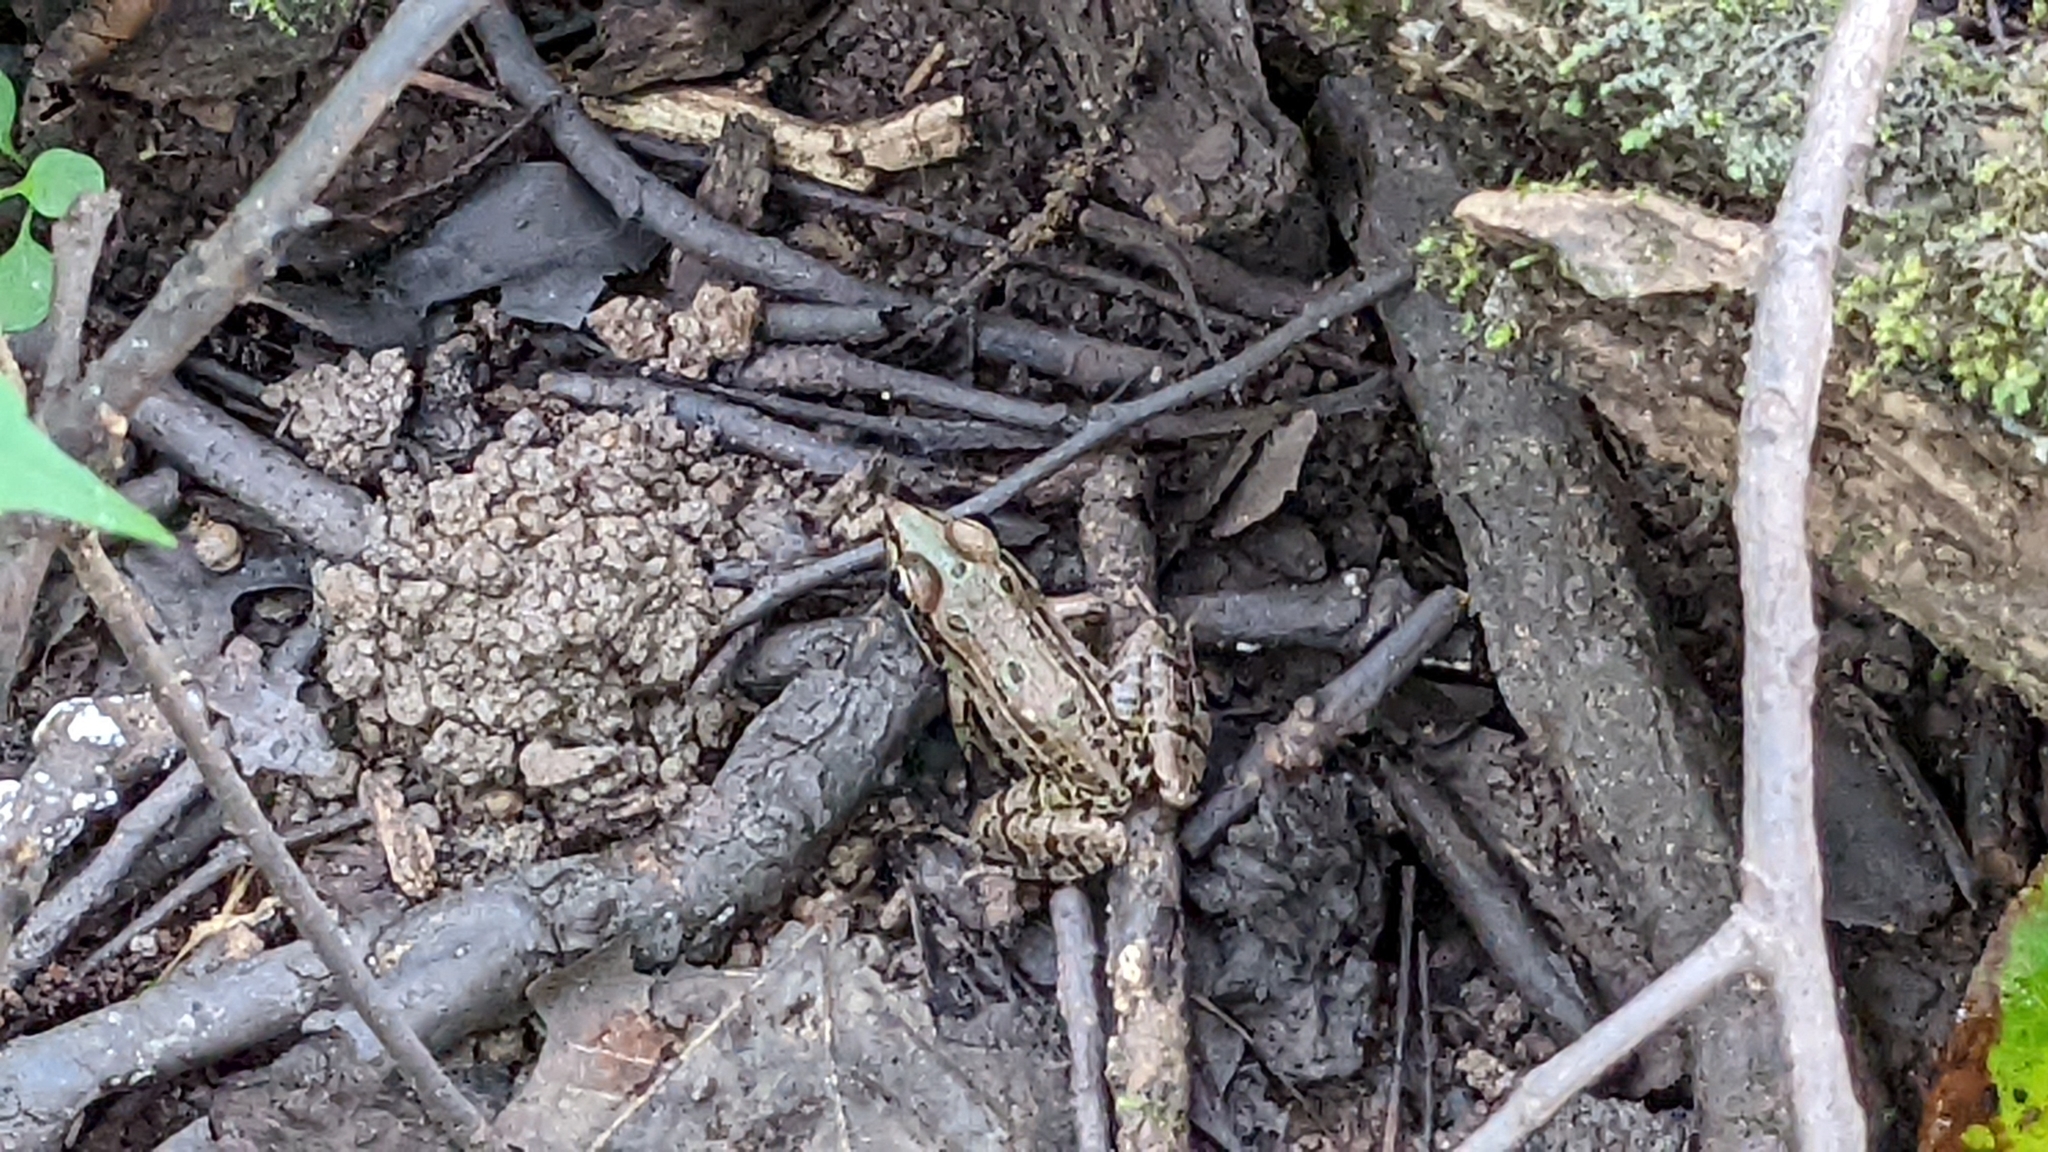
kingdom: Animalia
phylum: Chordata
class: Amphibia
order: Anura
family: Ranidae
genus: Lithobates
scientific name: Lithobates sphenocephalus
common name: Southern leopard frog
